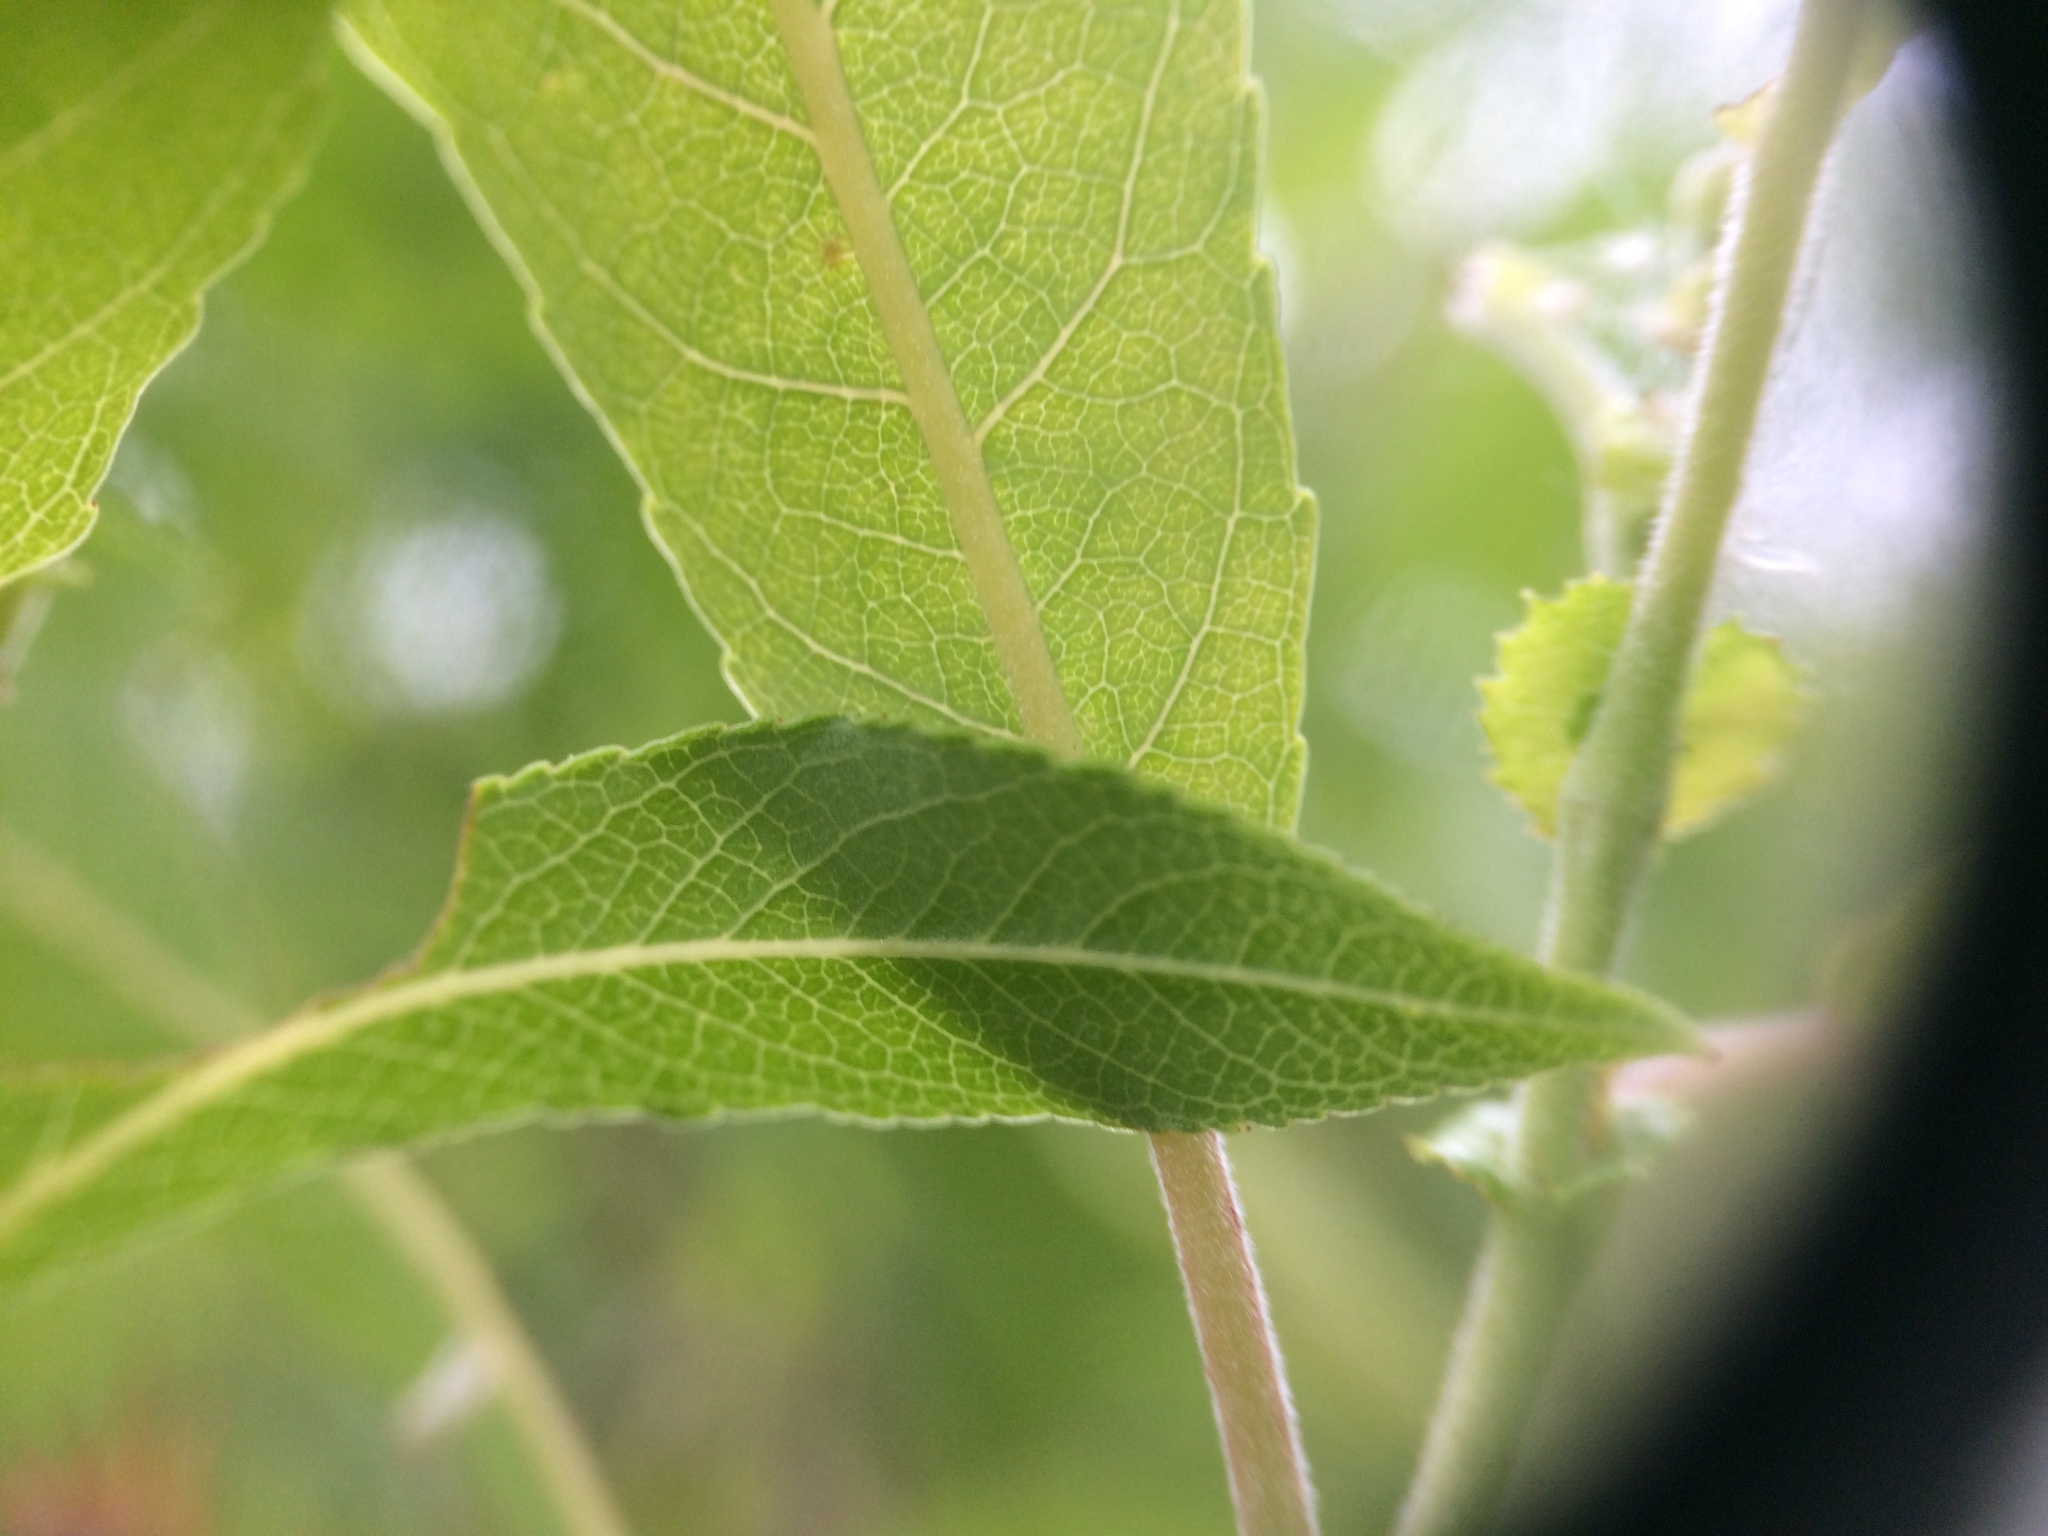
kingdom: Plantae
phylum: Tracheophyta
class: Magnoliopsida
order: Malpighiales
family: Salicaceae
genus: Salix
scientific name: Salix eriocephala
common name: Heart-leaved willow
